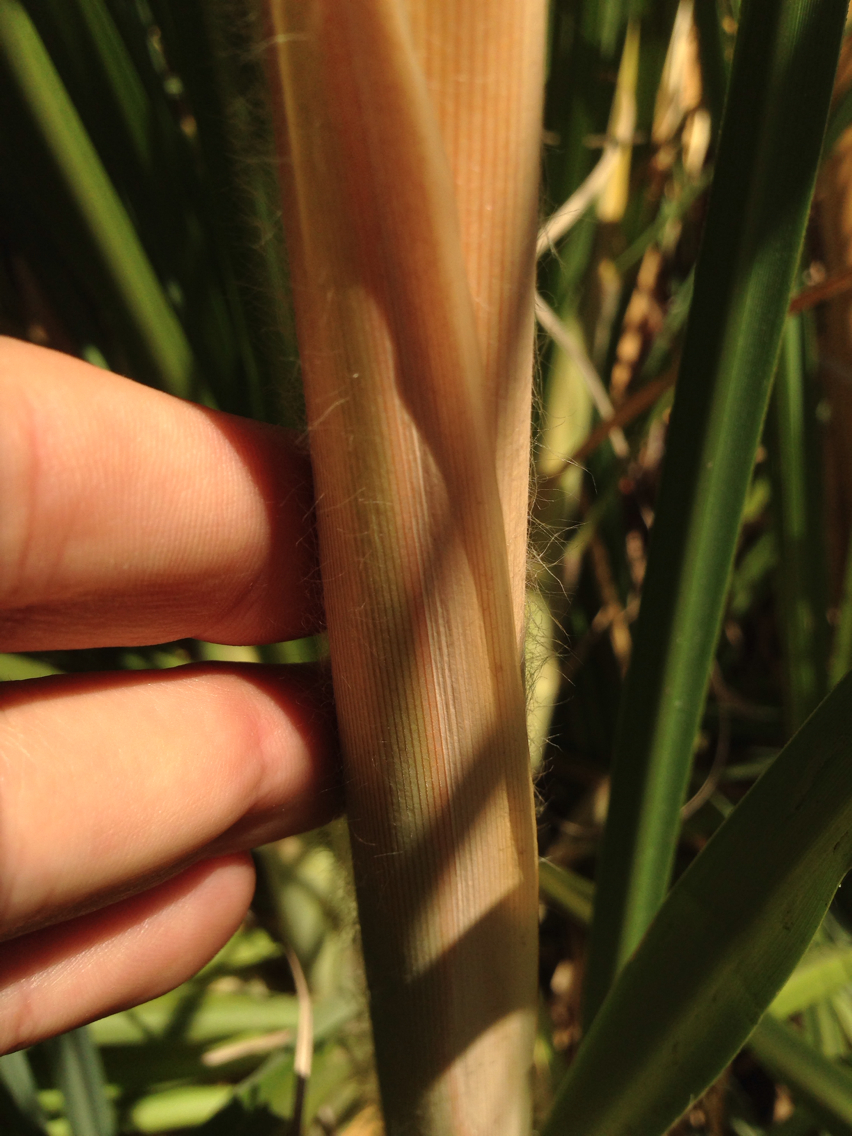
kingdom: Plantae
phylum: Tracheophyta
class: Liliopsida
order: Poales
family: Poaceae
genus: Cortaderia
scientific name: Cortaderia jubata
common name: Purple pampas grass
